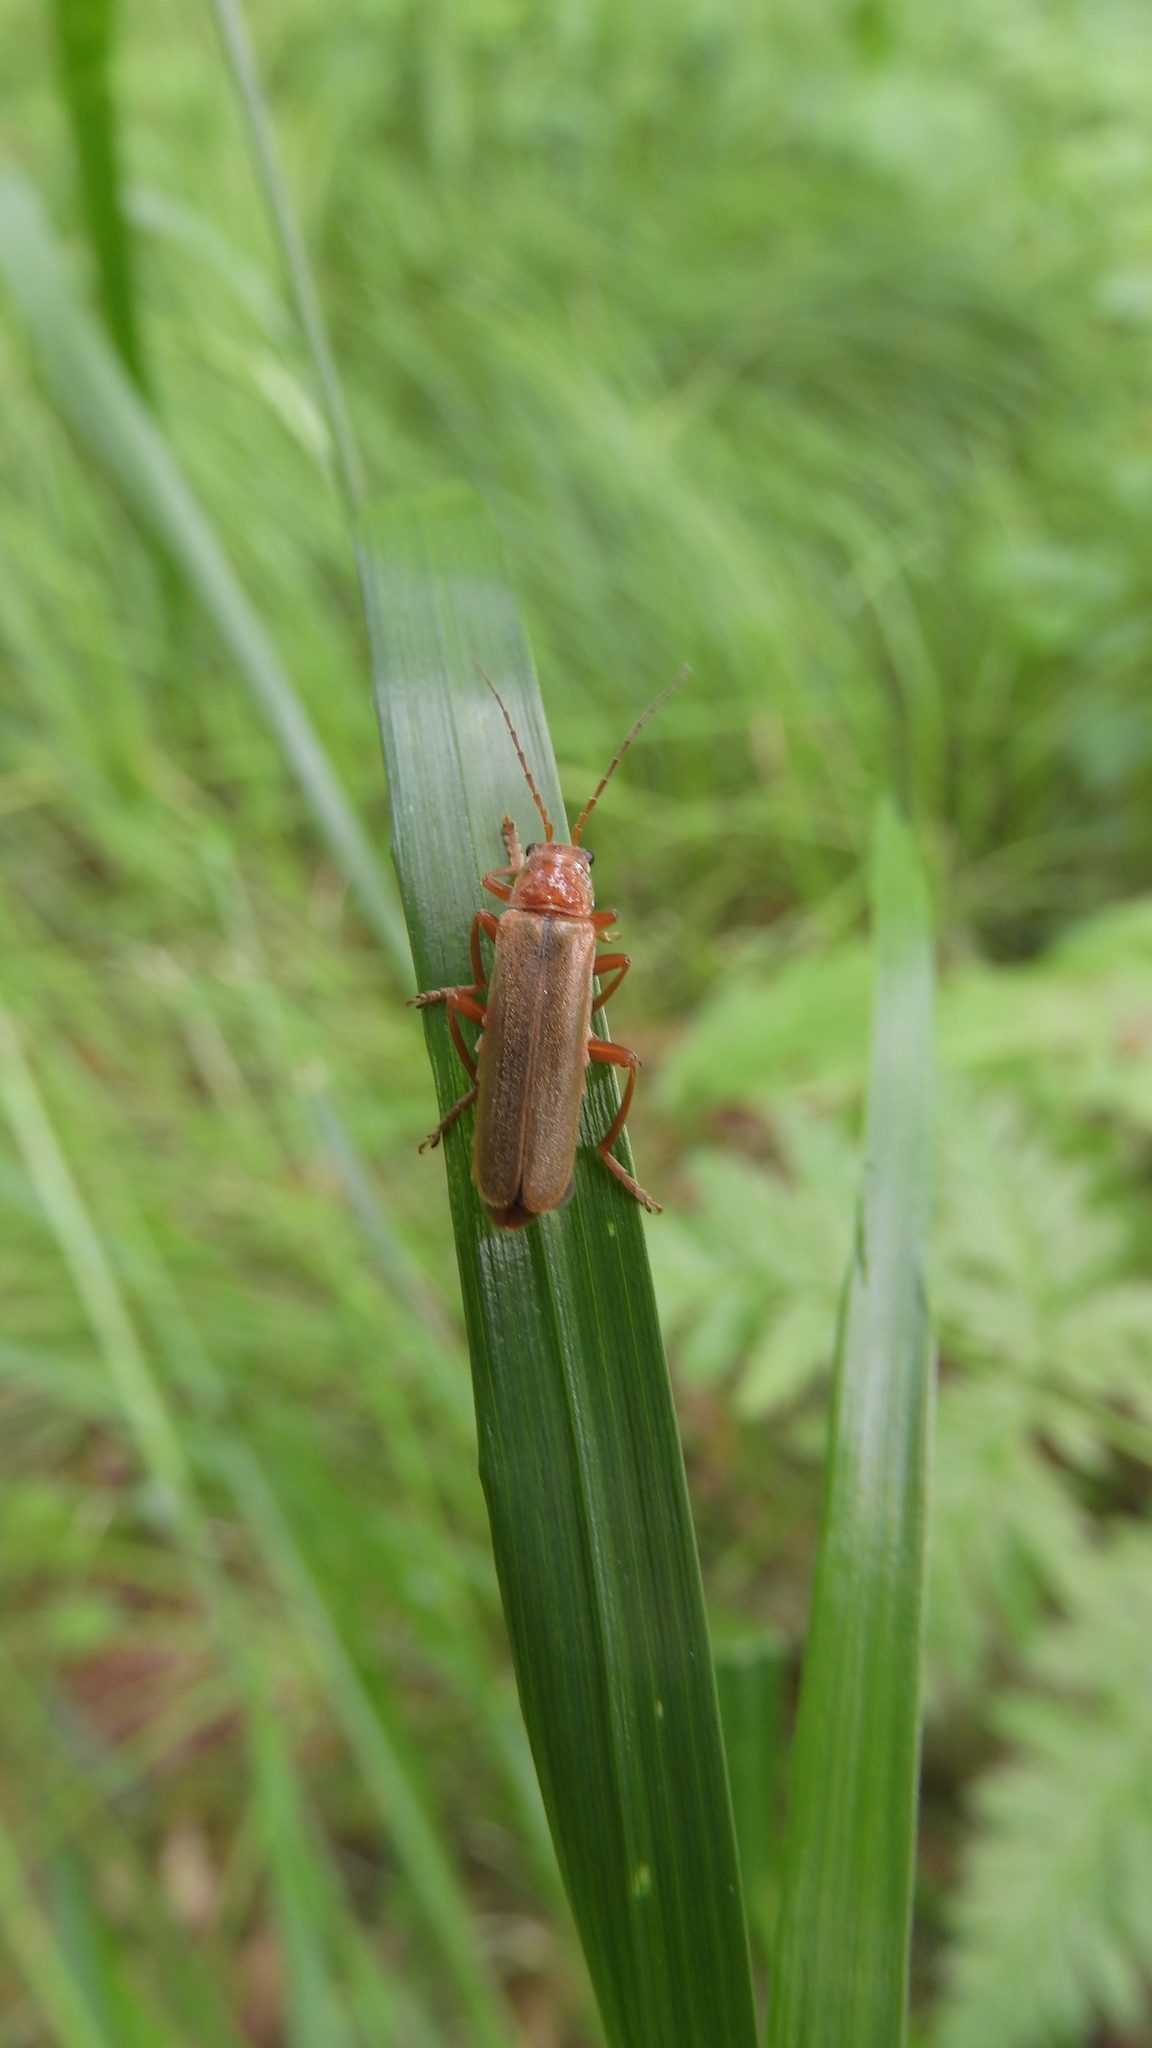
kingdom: Animalia
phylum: Arthropoda
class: Insecta
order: Coleoptera
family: Cantharidae
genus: Cantharis
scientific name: Cantharis rufa
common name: Red-spotted soldier beetle
